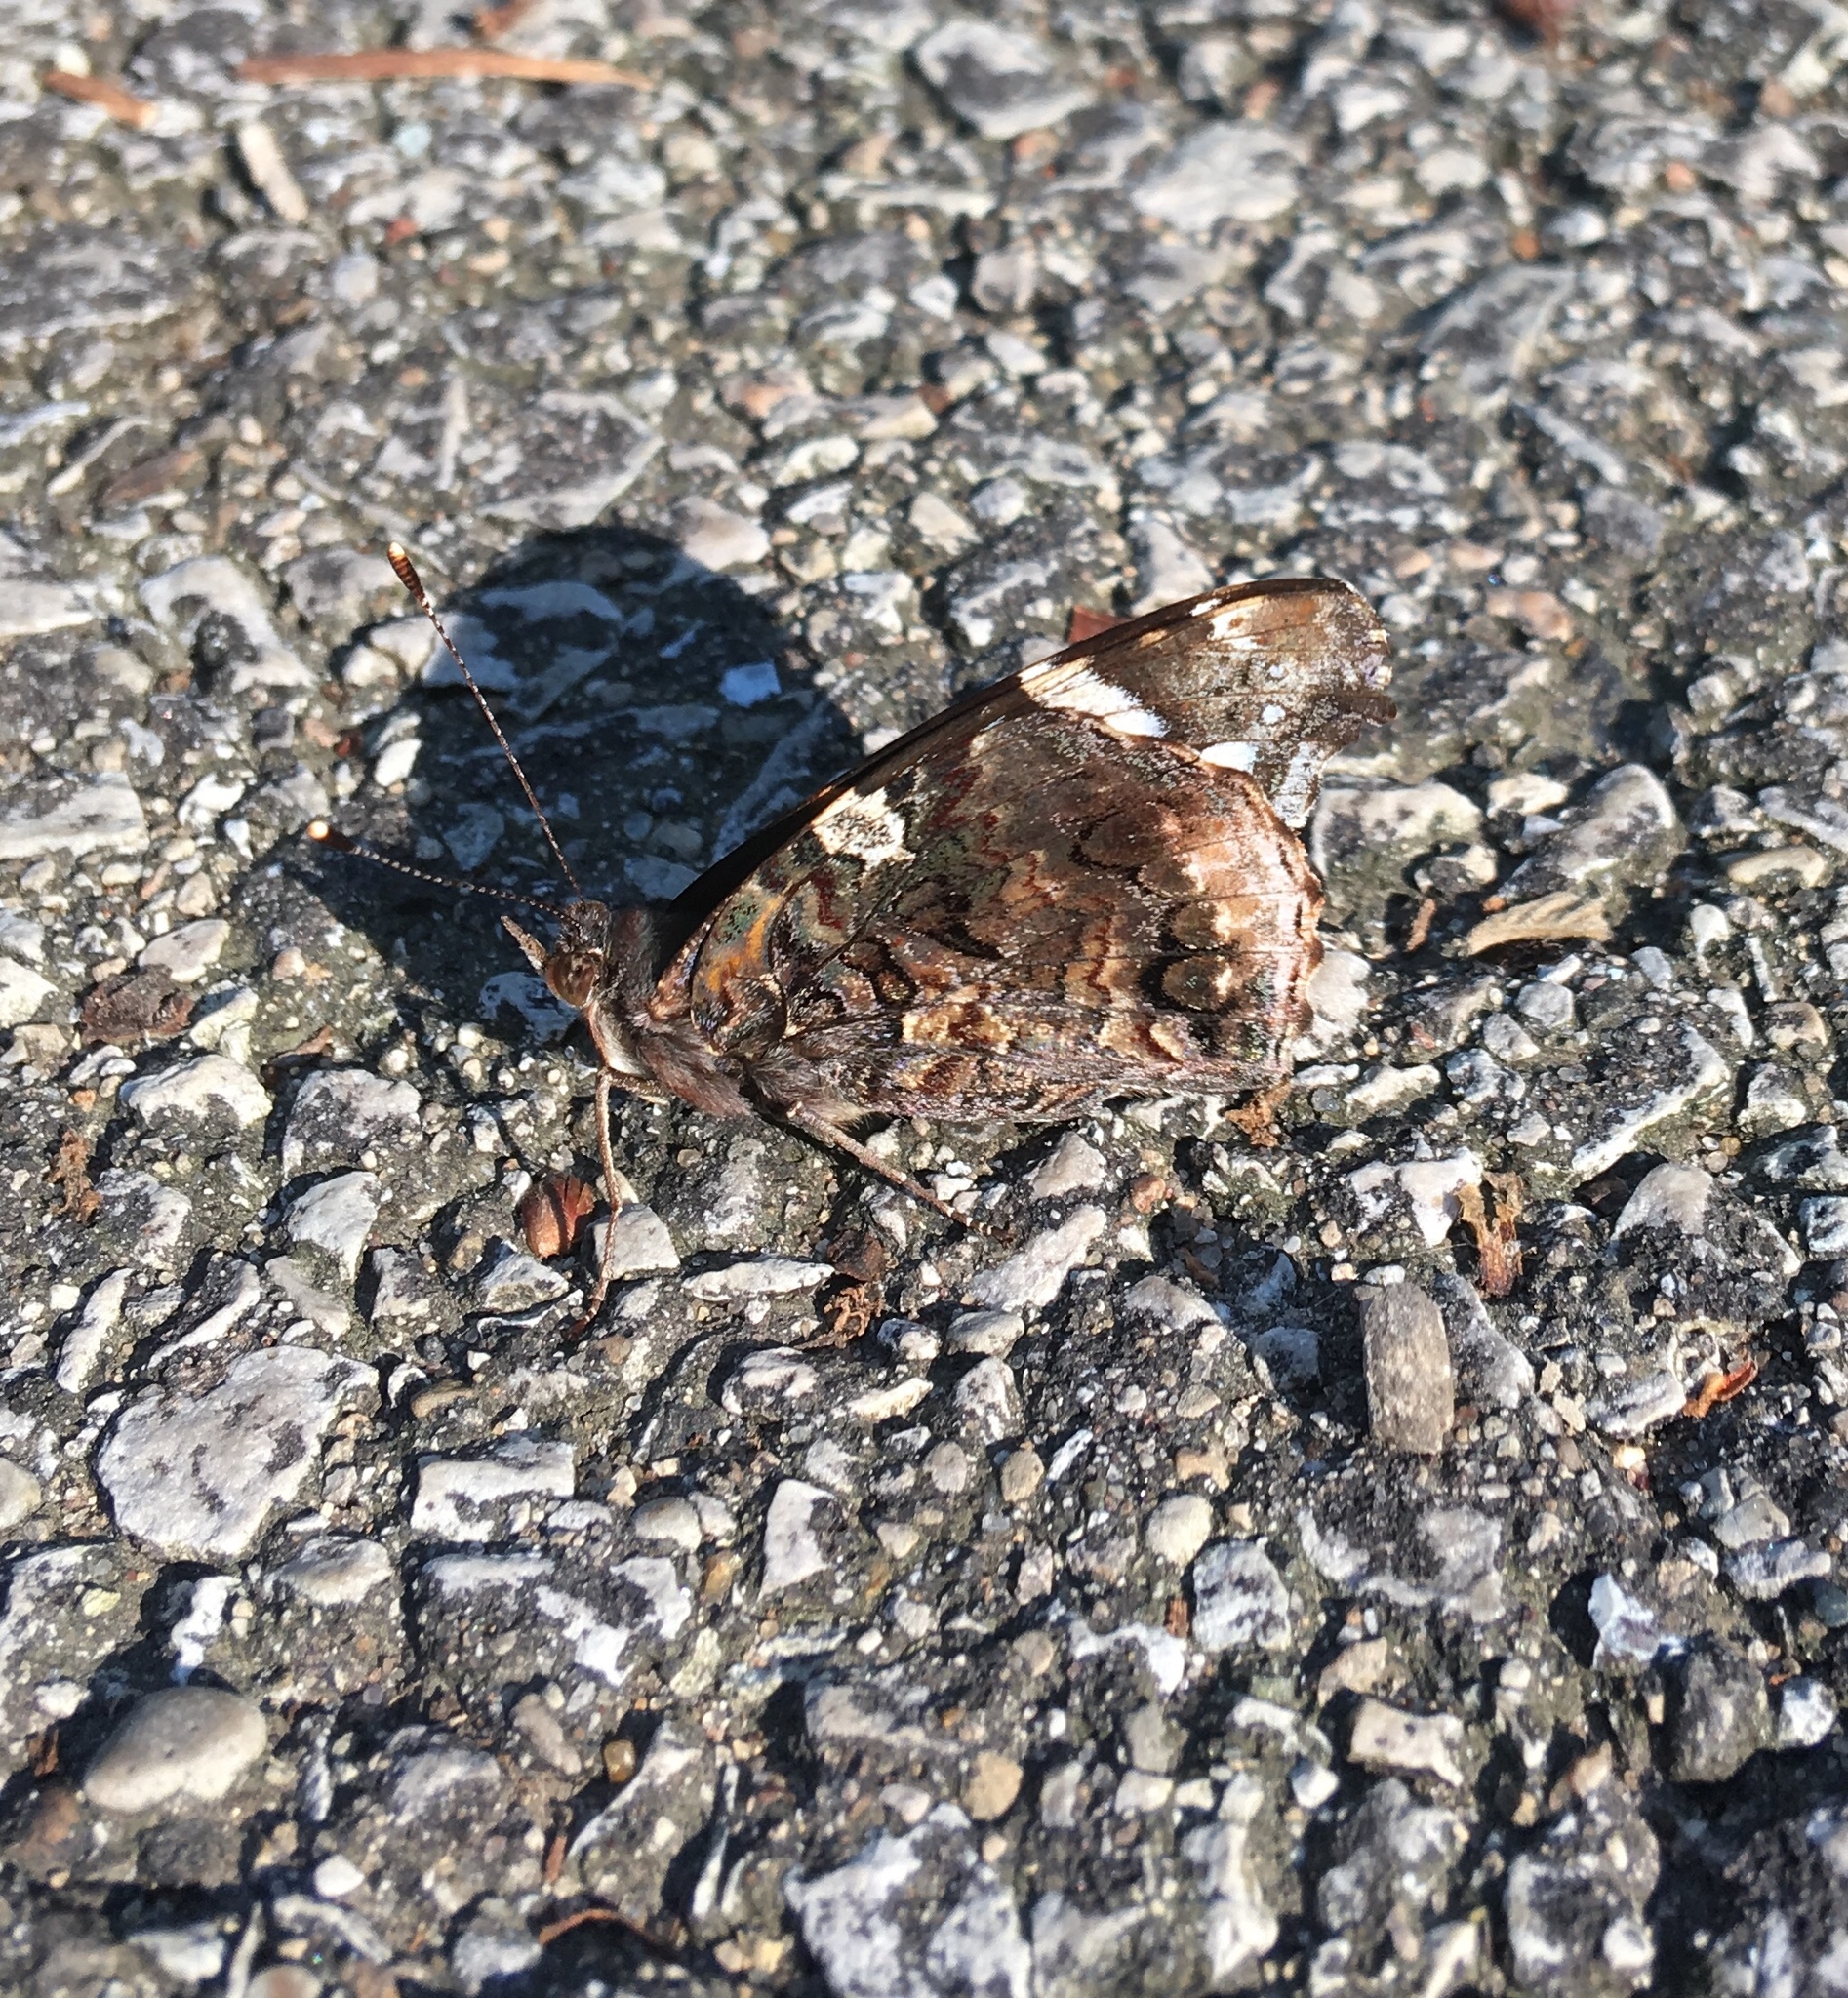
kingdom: Animalia
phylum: Arthropoda
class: Insecta
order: Lepidoptera
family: Nymphalidae
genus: Vanessa
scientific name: Vanessa atalanta
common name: Red admiral
